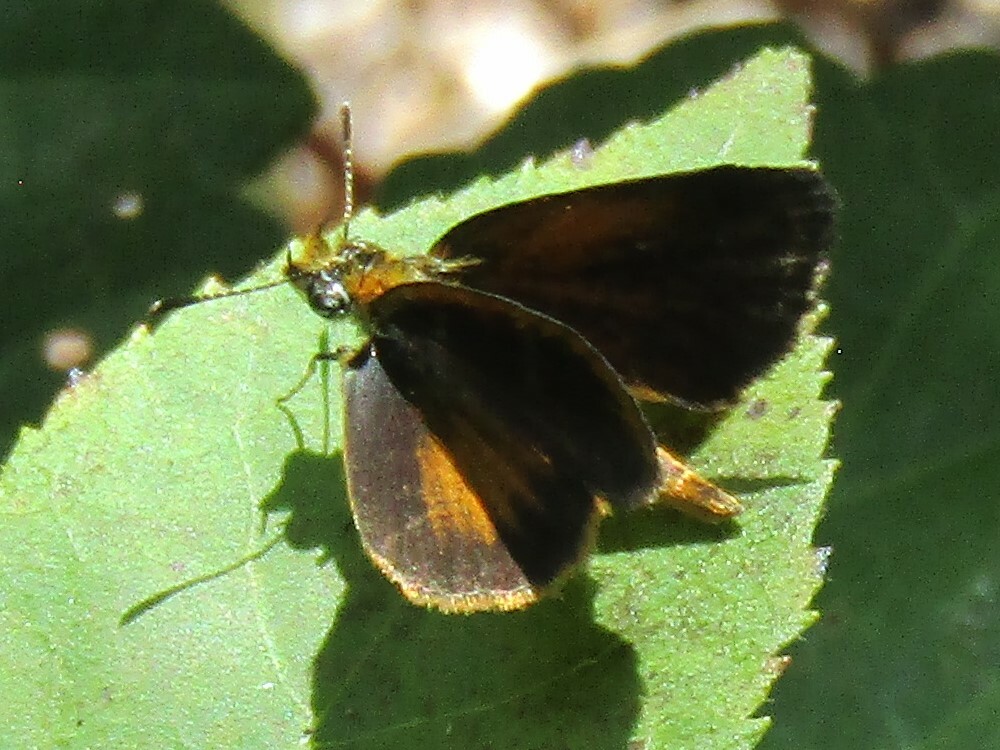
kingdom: Animalia
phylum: Arthropoda
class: Insecta
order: Lepidoptera
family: Hesperiidae
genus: Ancyloxypha
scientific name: Ancyloxypha numitor
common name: Least skipper
